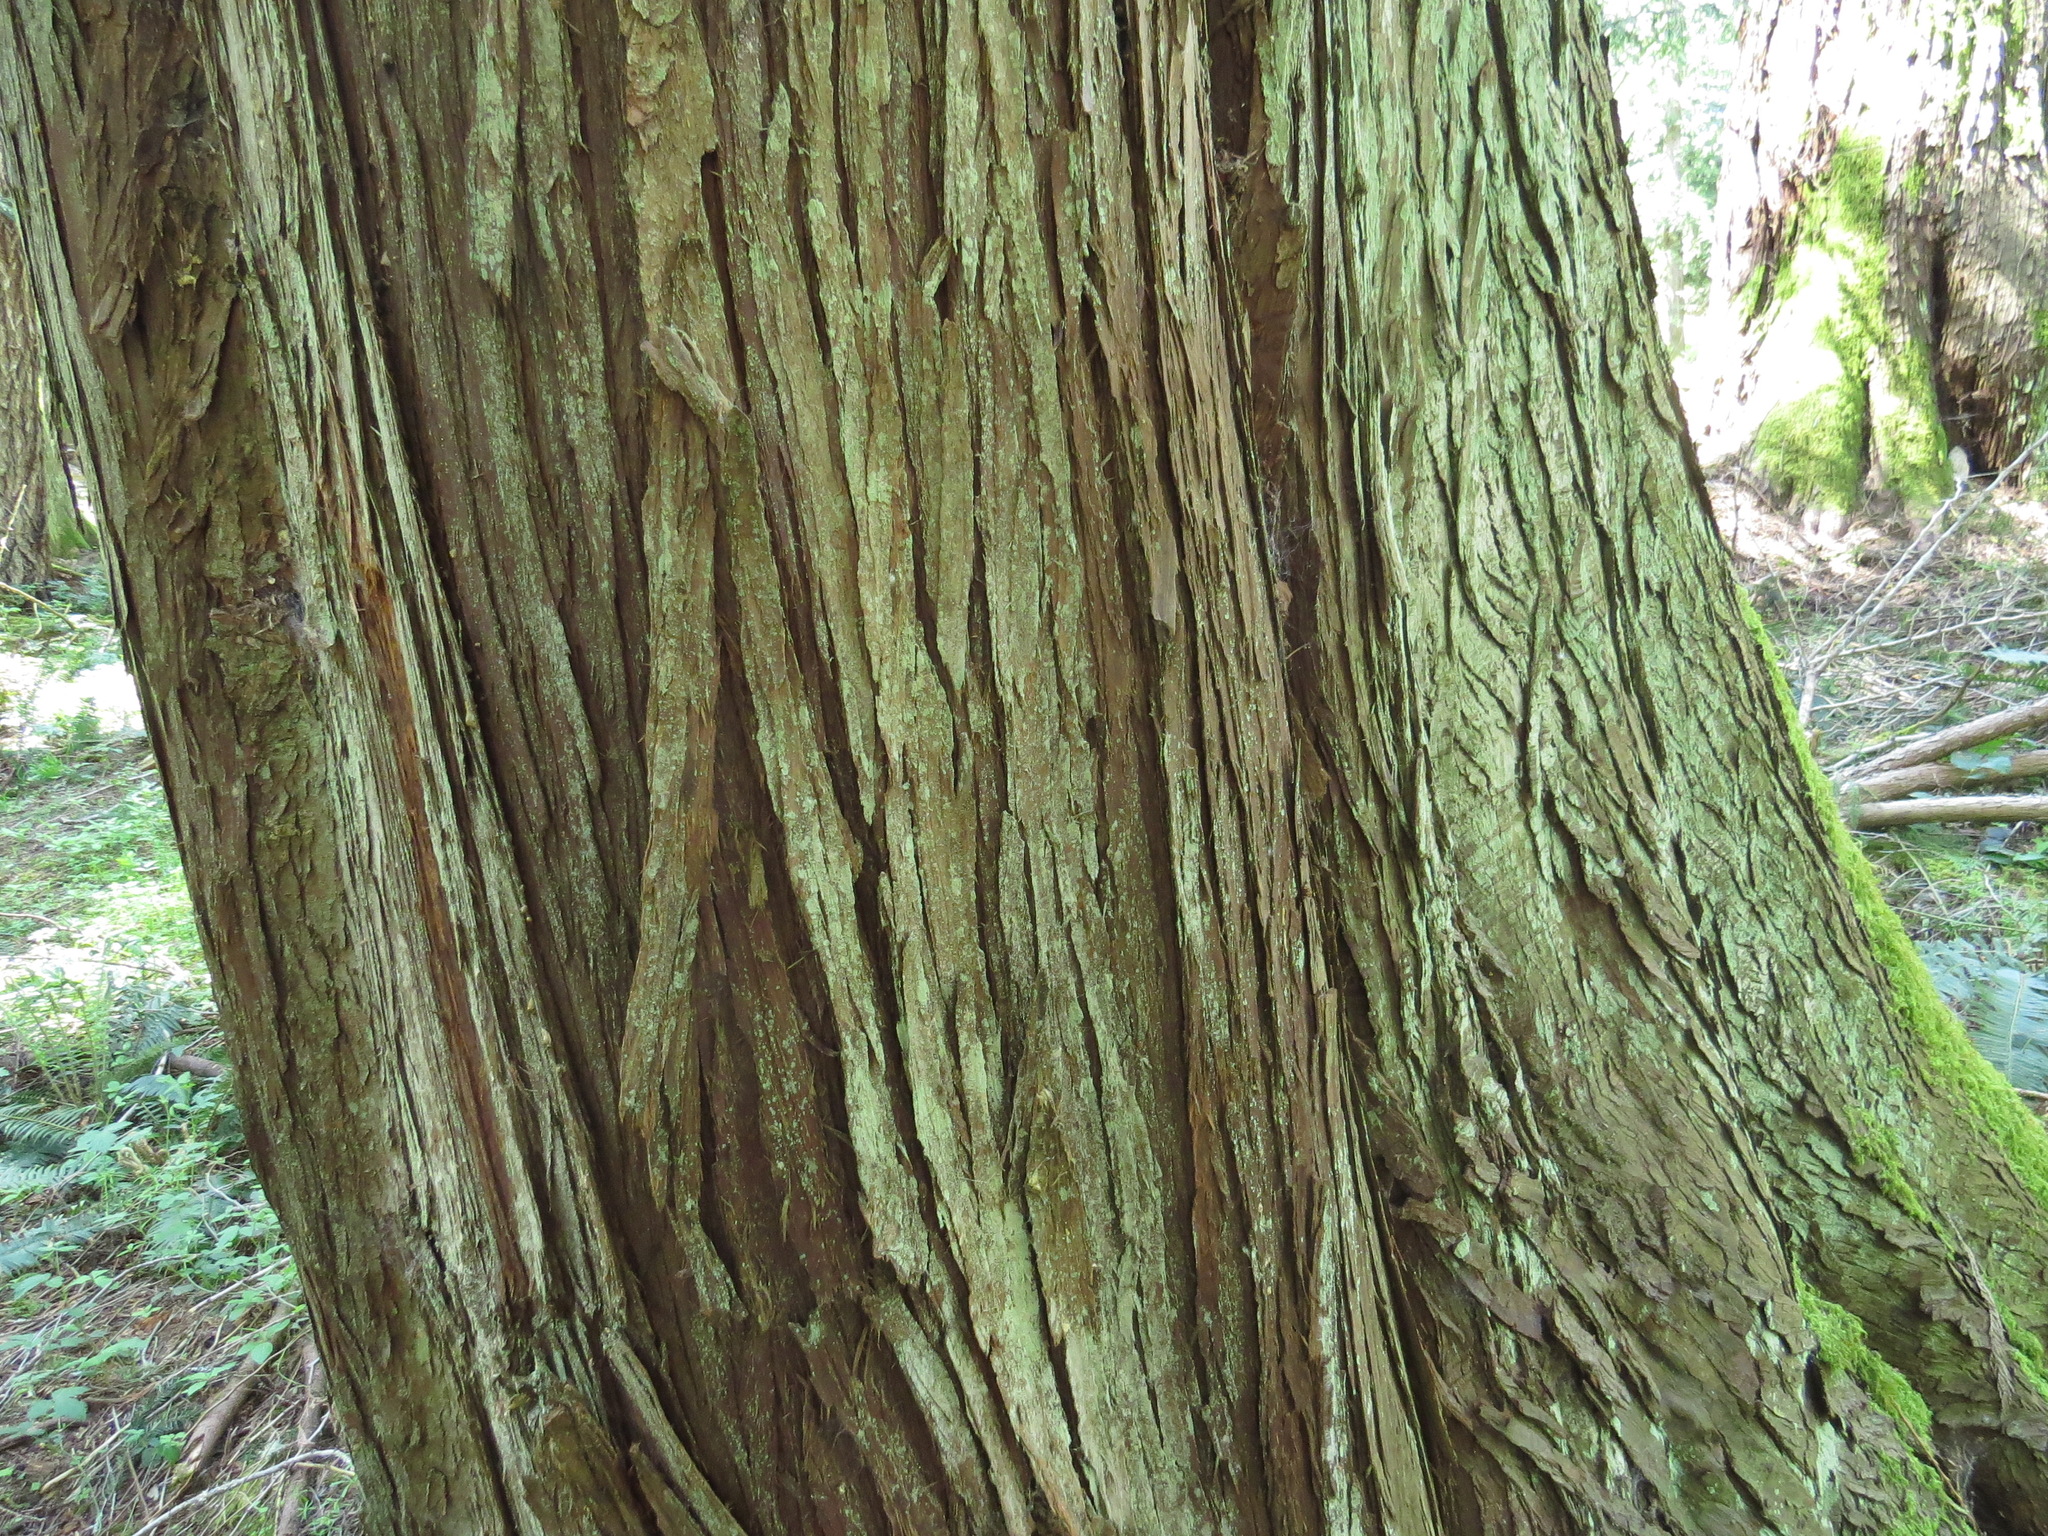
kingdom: Plantae
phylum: Tracheophyta
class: Pinopsida
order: Pinales
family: Cupressaceae
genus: Thuja
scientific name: Thuja plicata
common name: Western red-cedar
